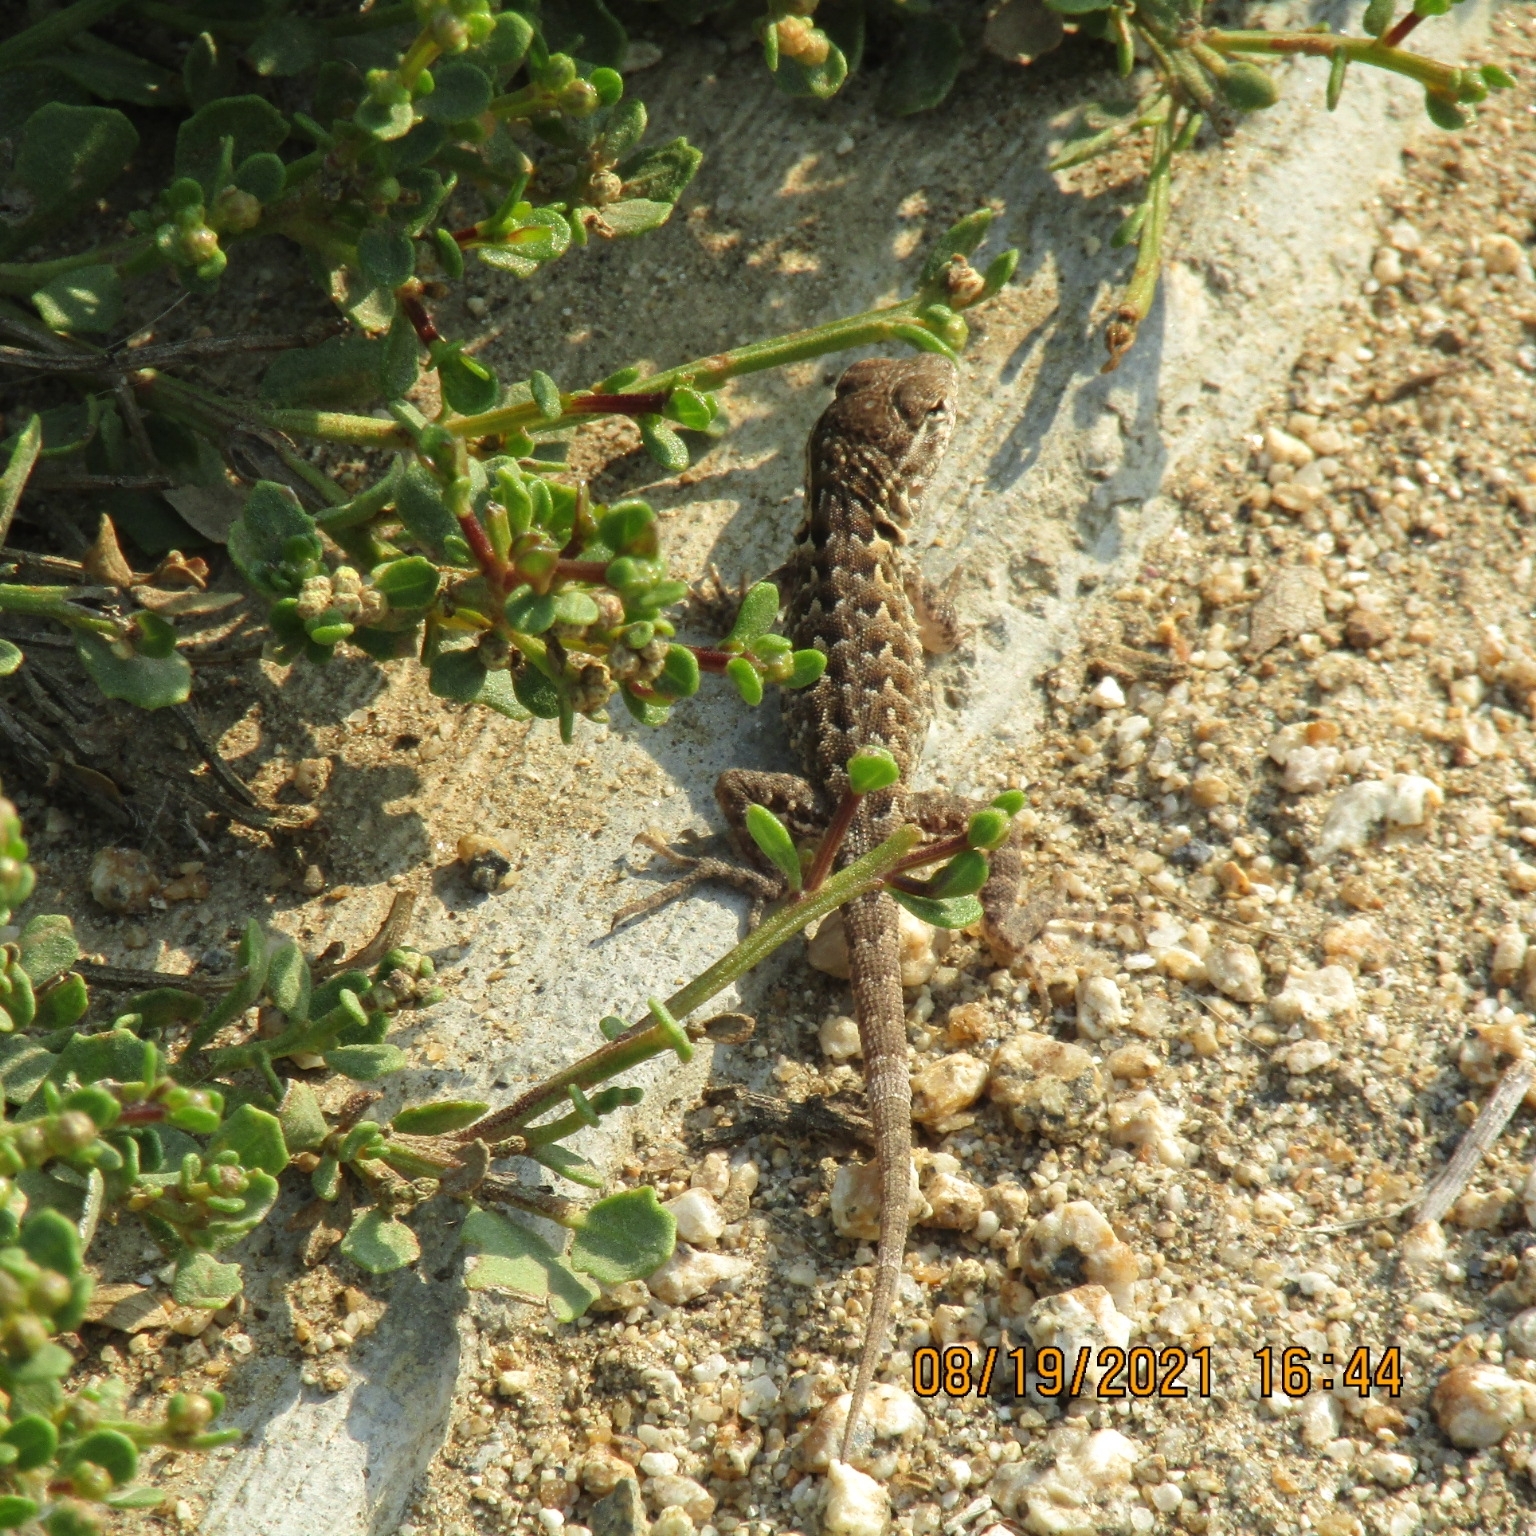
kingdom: Animalia
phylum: Chordata
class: Squamata
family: Phrynosomatidae
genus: Uta
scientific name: Uta stansburiana
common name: Side-blotched lizard
